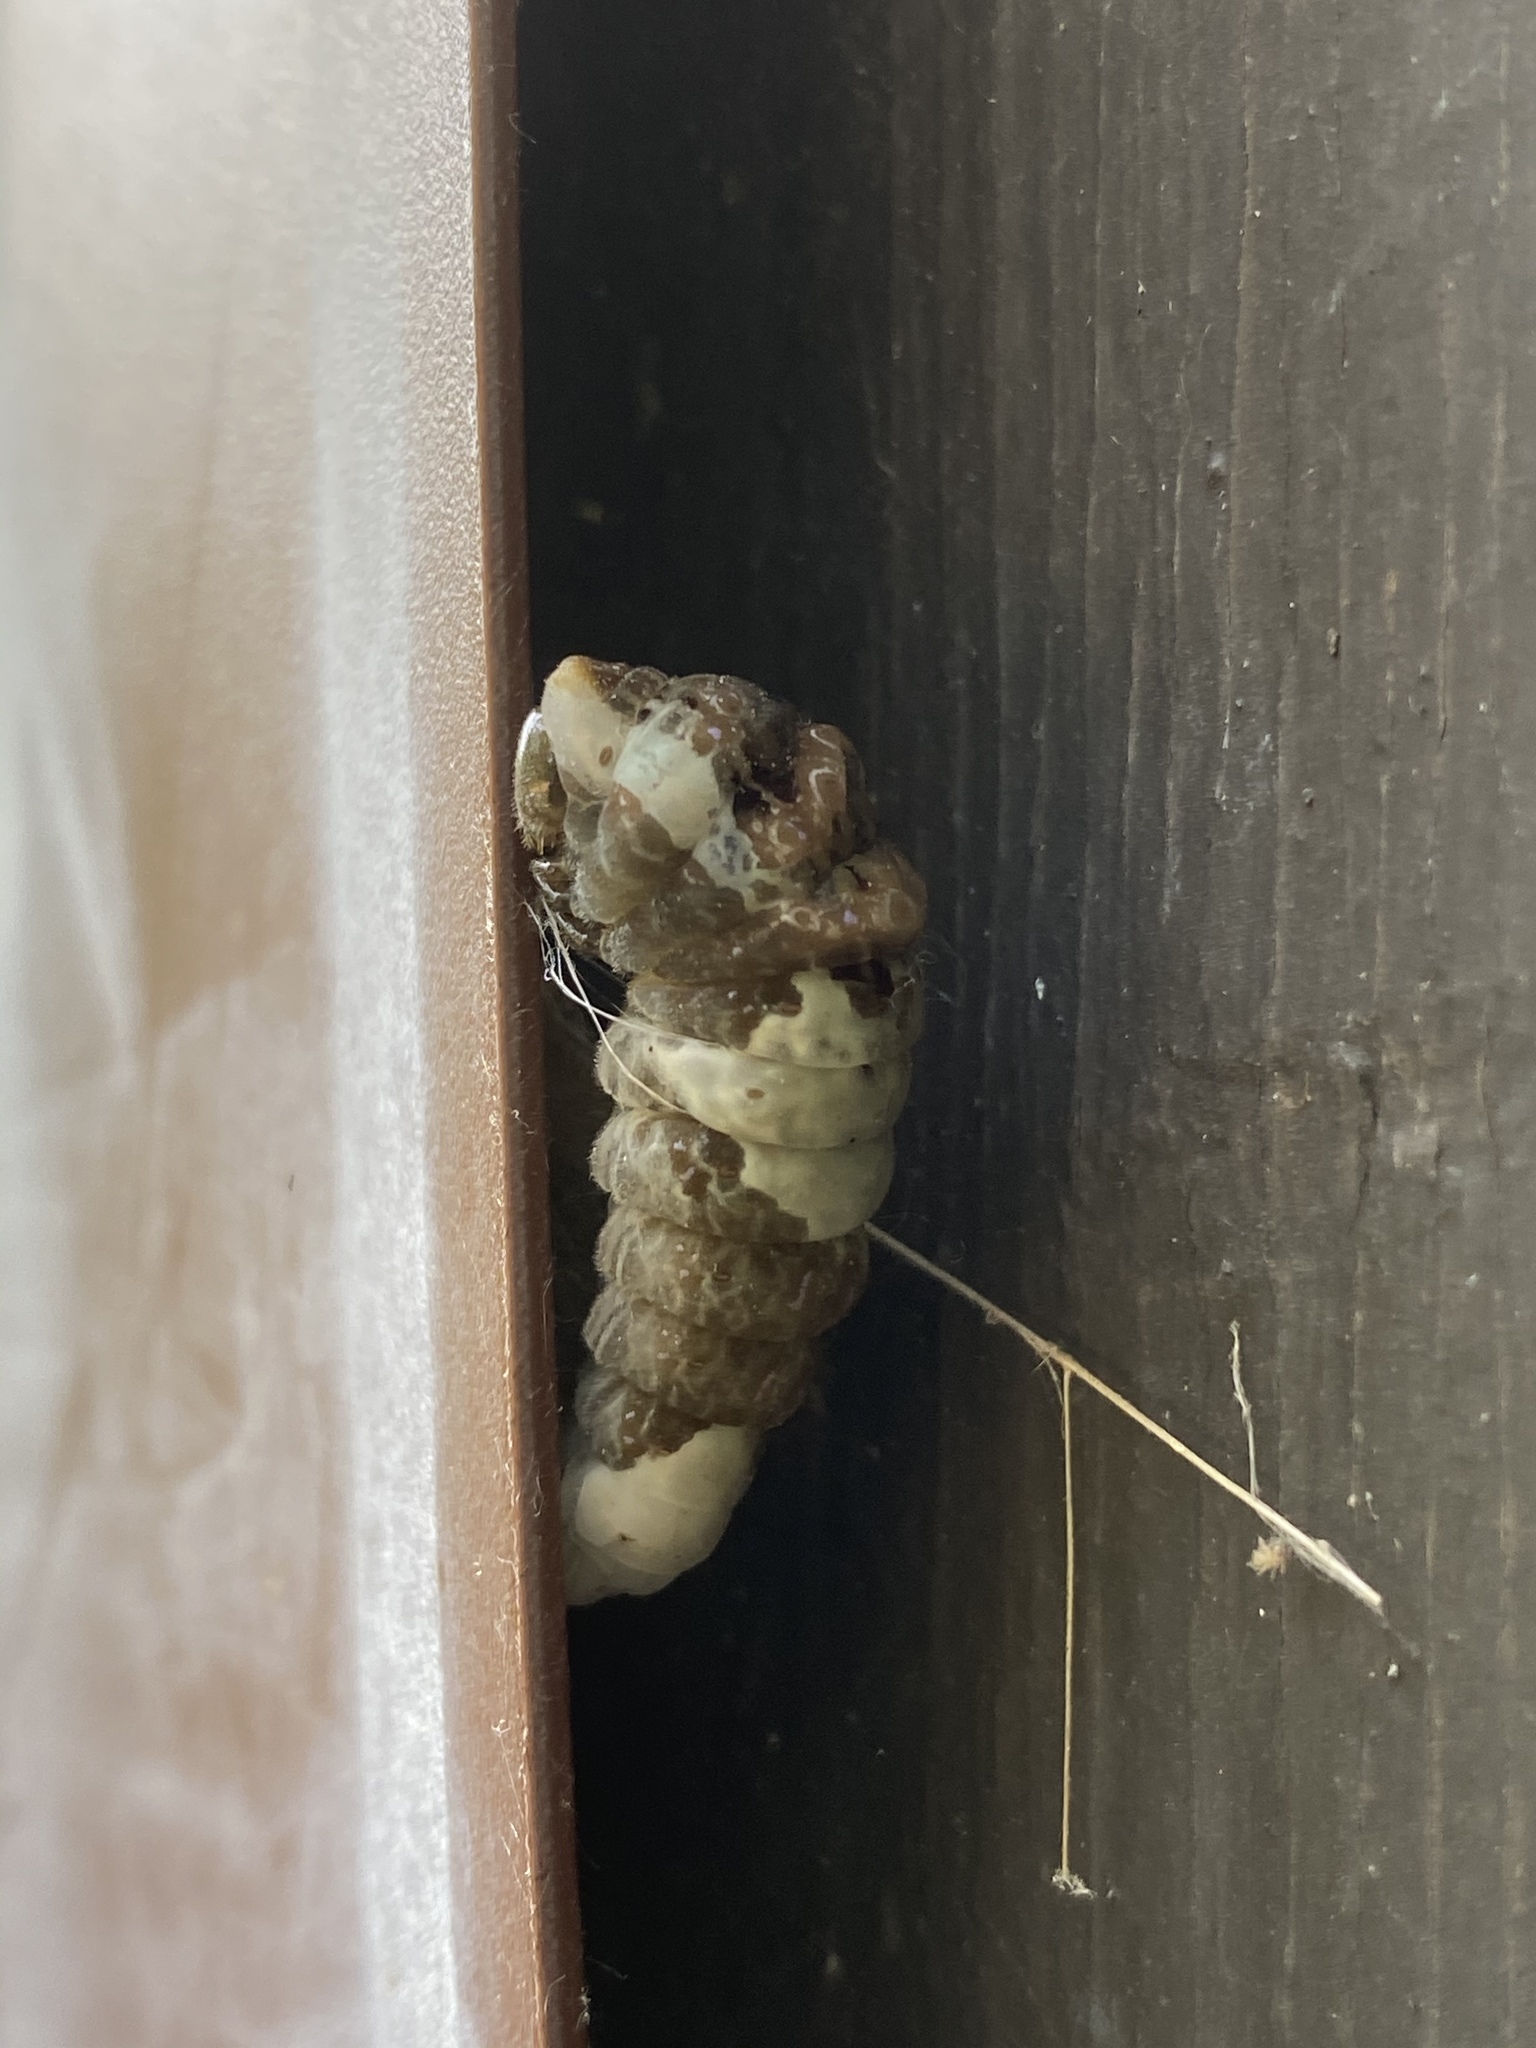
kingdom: Animalia
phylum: Arthropoda
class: Insecta
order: Lepidoptera
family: Papilionidae
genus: Papilio
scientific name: Papilio cresphontes
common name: Giant swallowtail
